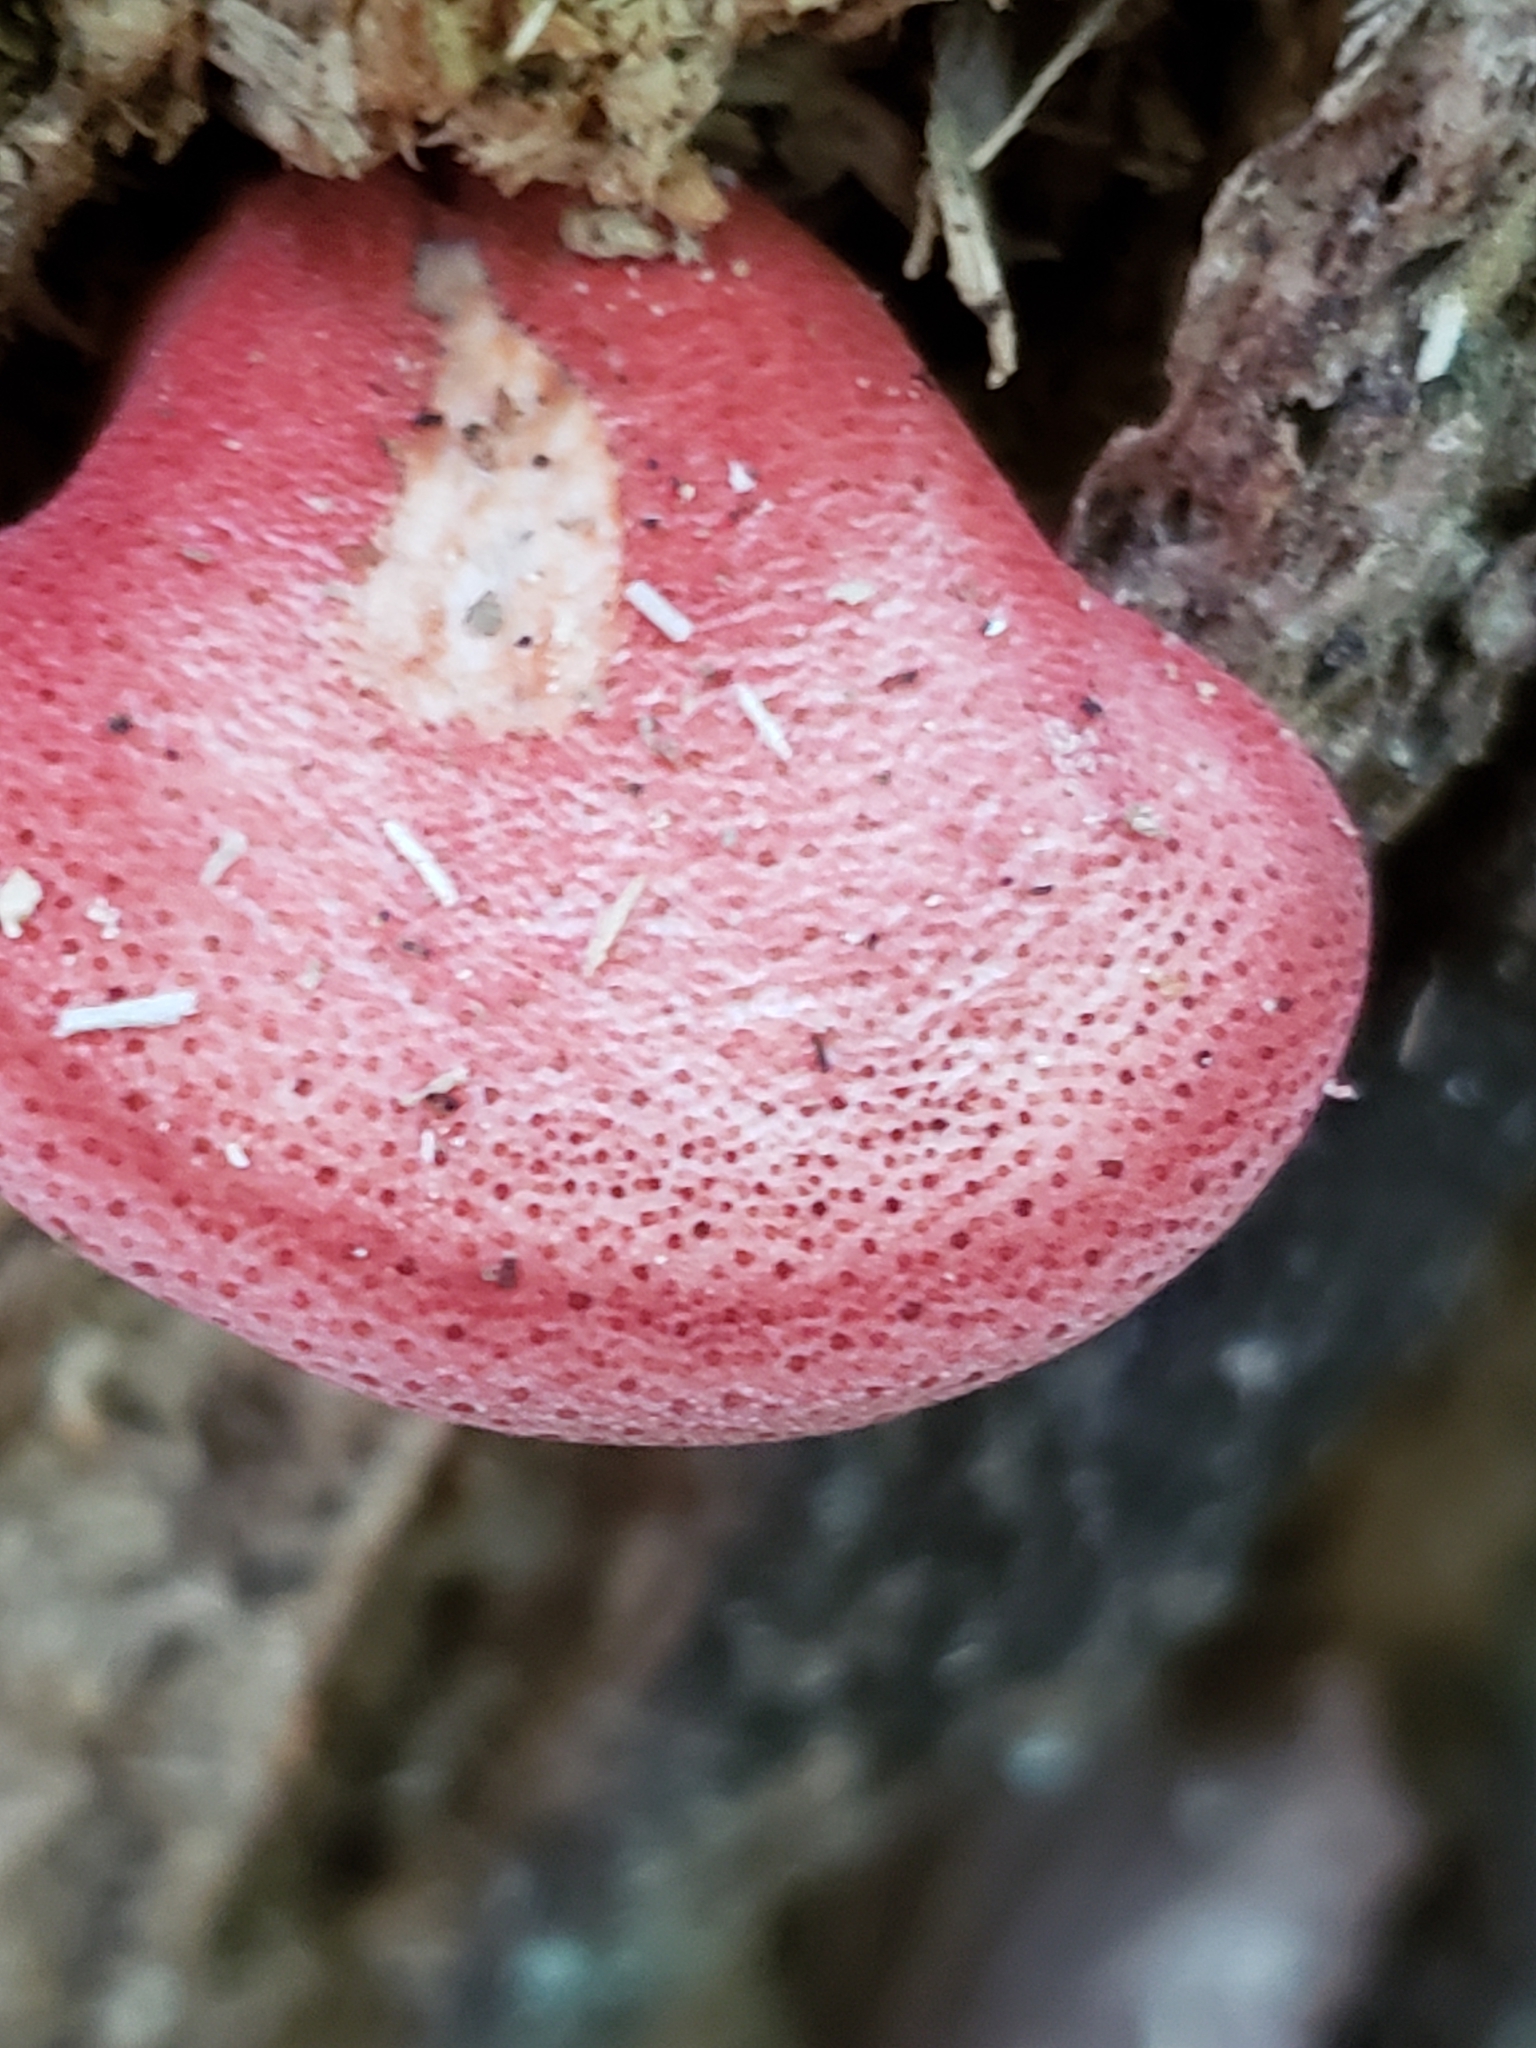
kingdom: Fungi
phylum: Basidiomycota
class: Agaricomycetes
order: Agaricales
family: Fistulinaceae
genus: Fistulina
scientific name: Fistulina hepatica
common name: Beef-steak fungus
